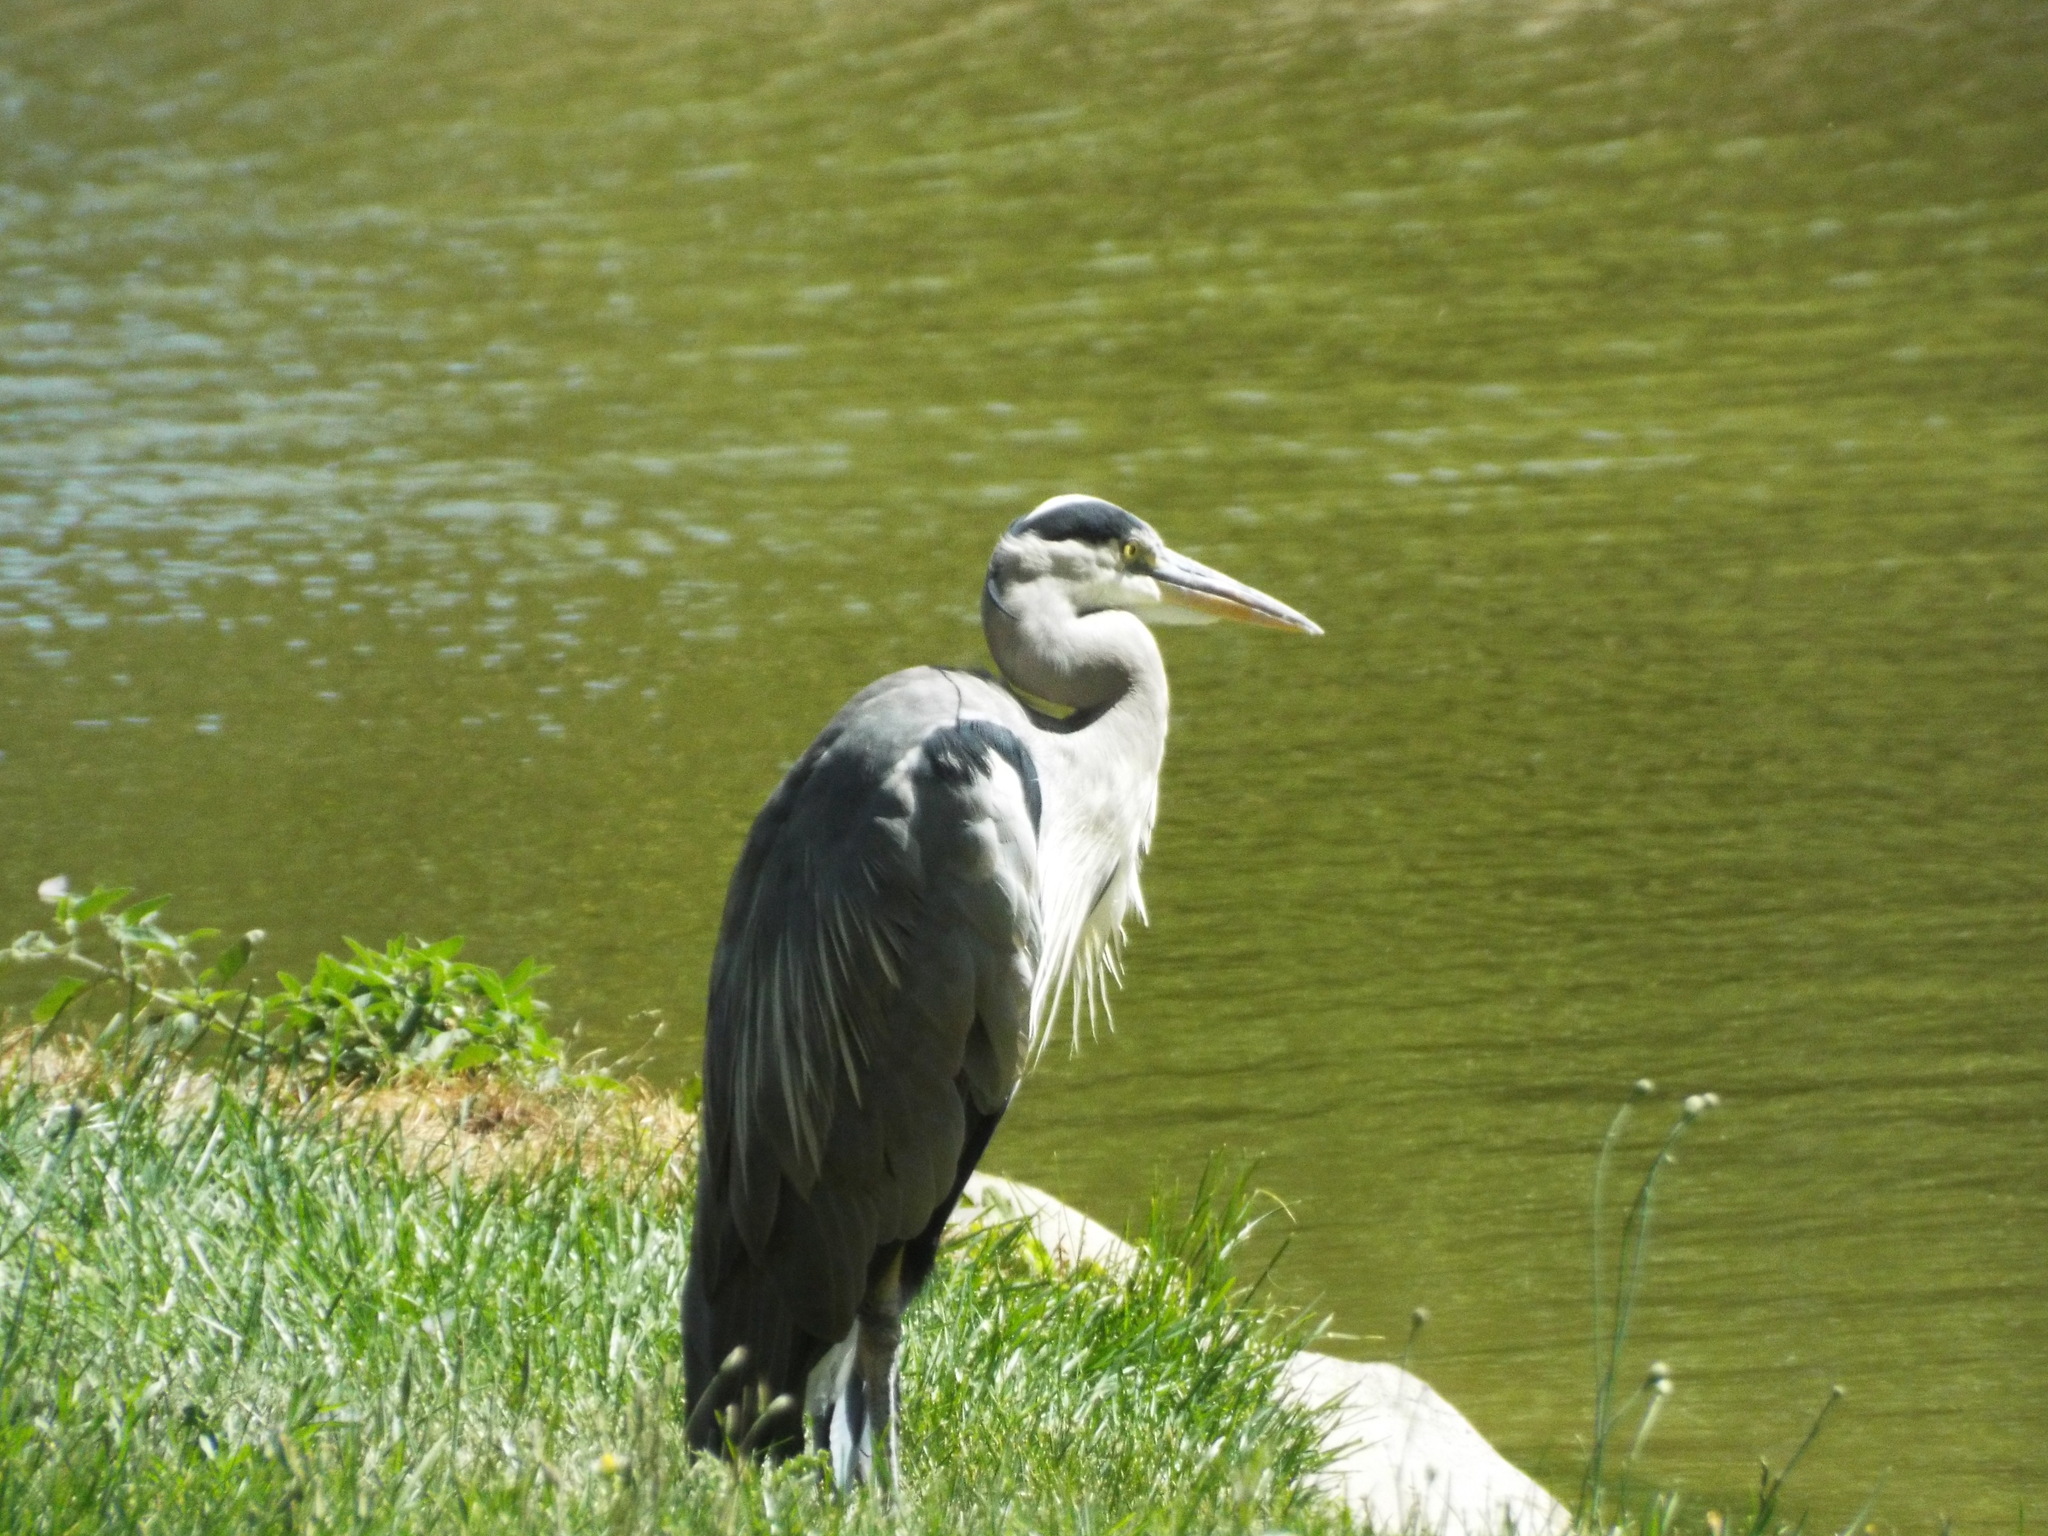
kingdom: Animalia
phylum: Chordata
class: Aves
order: Pelecaniformes
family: Ardeidae
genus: Ardea
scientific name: Ardea cinerea
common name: Grey heron
